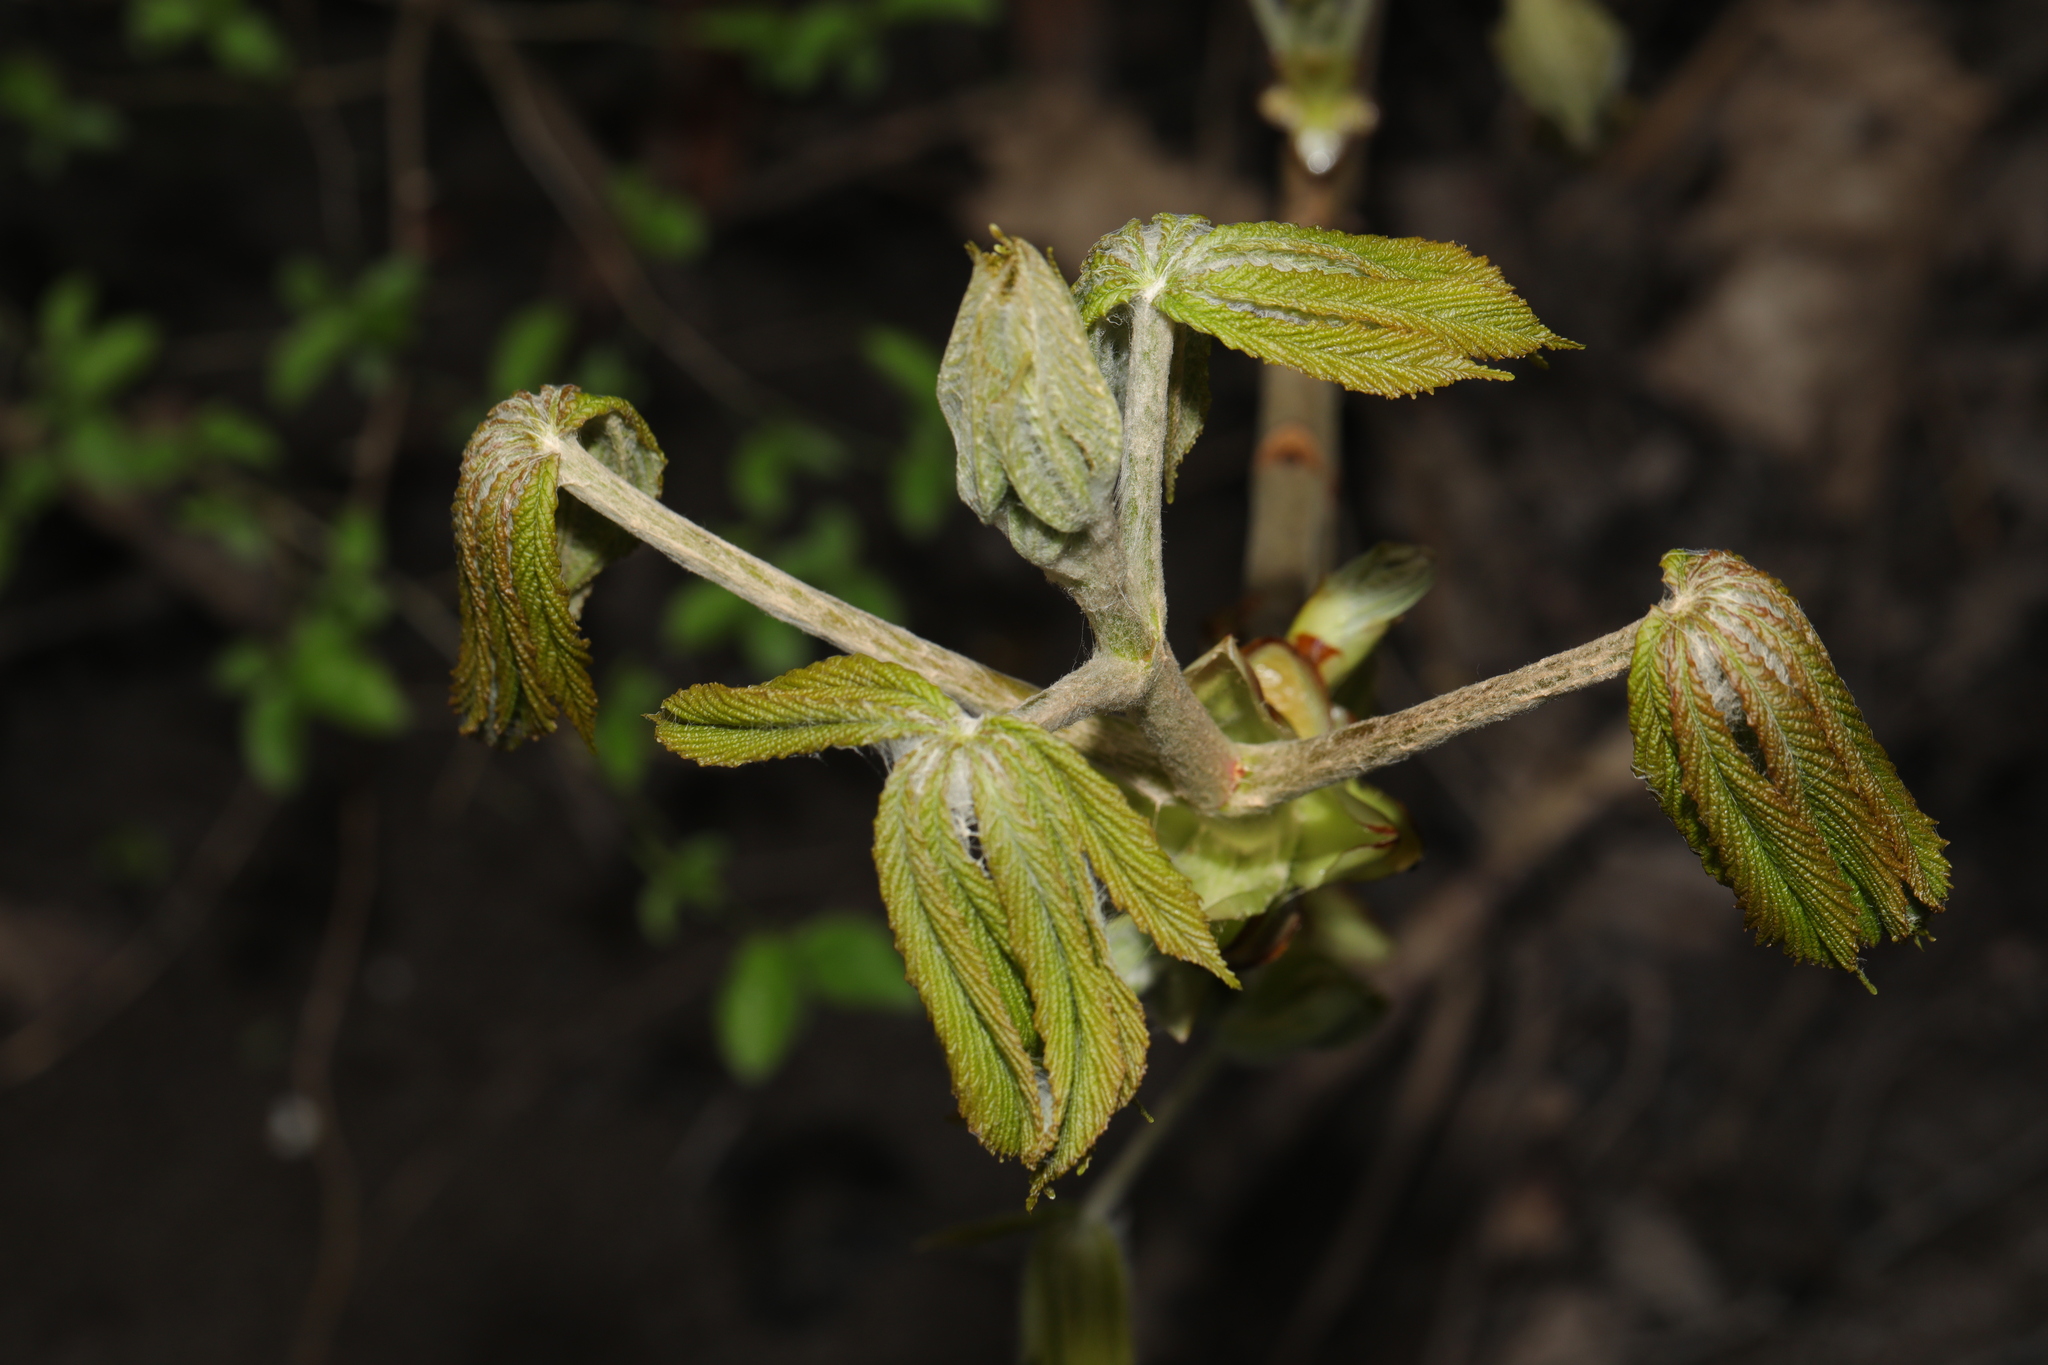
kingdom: Plantae
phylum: Tracheophyta
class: Magnoliopsida
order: Sapindales
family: Sapindaceae
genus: Aesculus
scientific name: Aesculus hippocastanum
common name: Horse-chestnut
